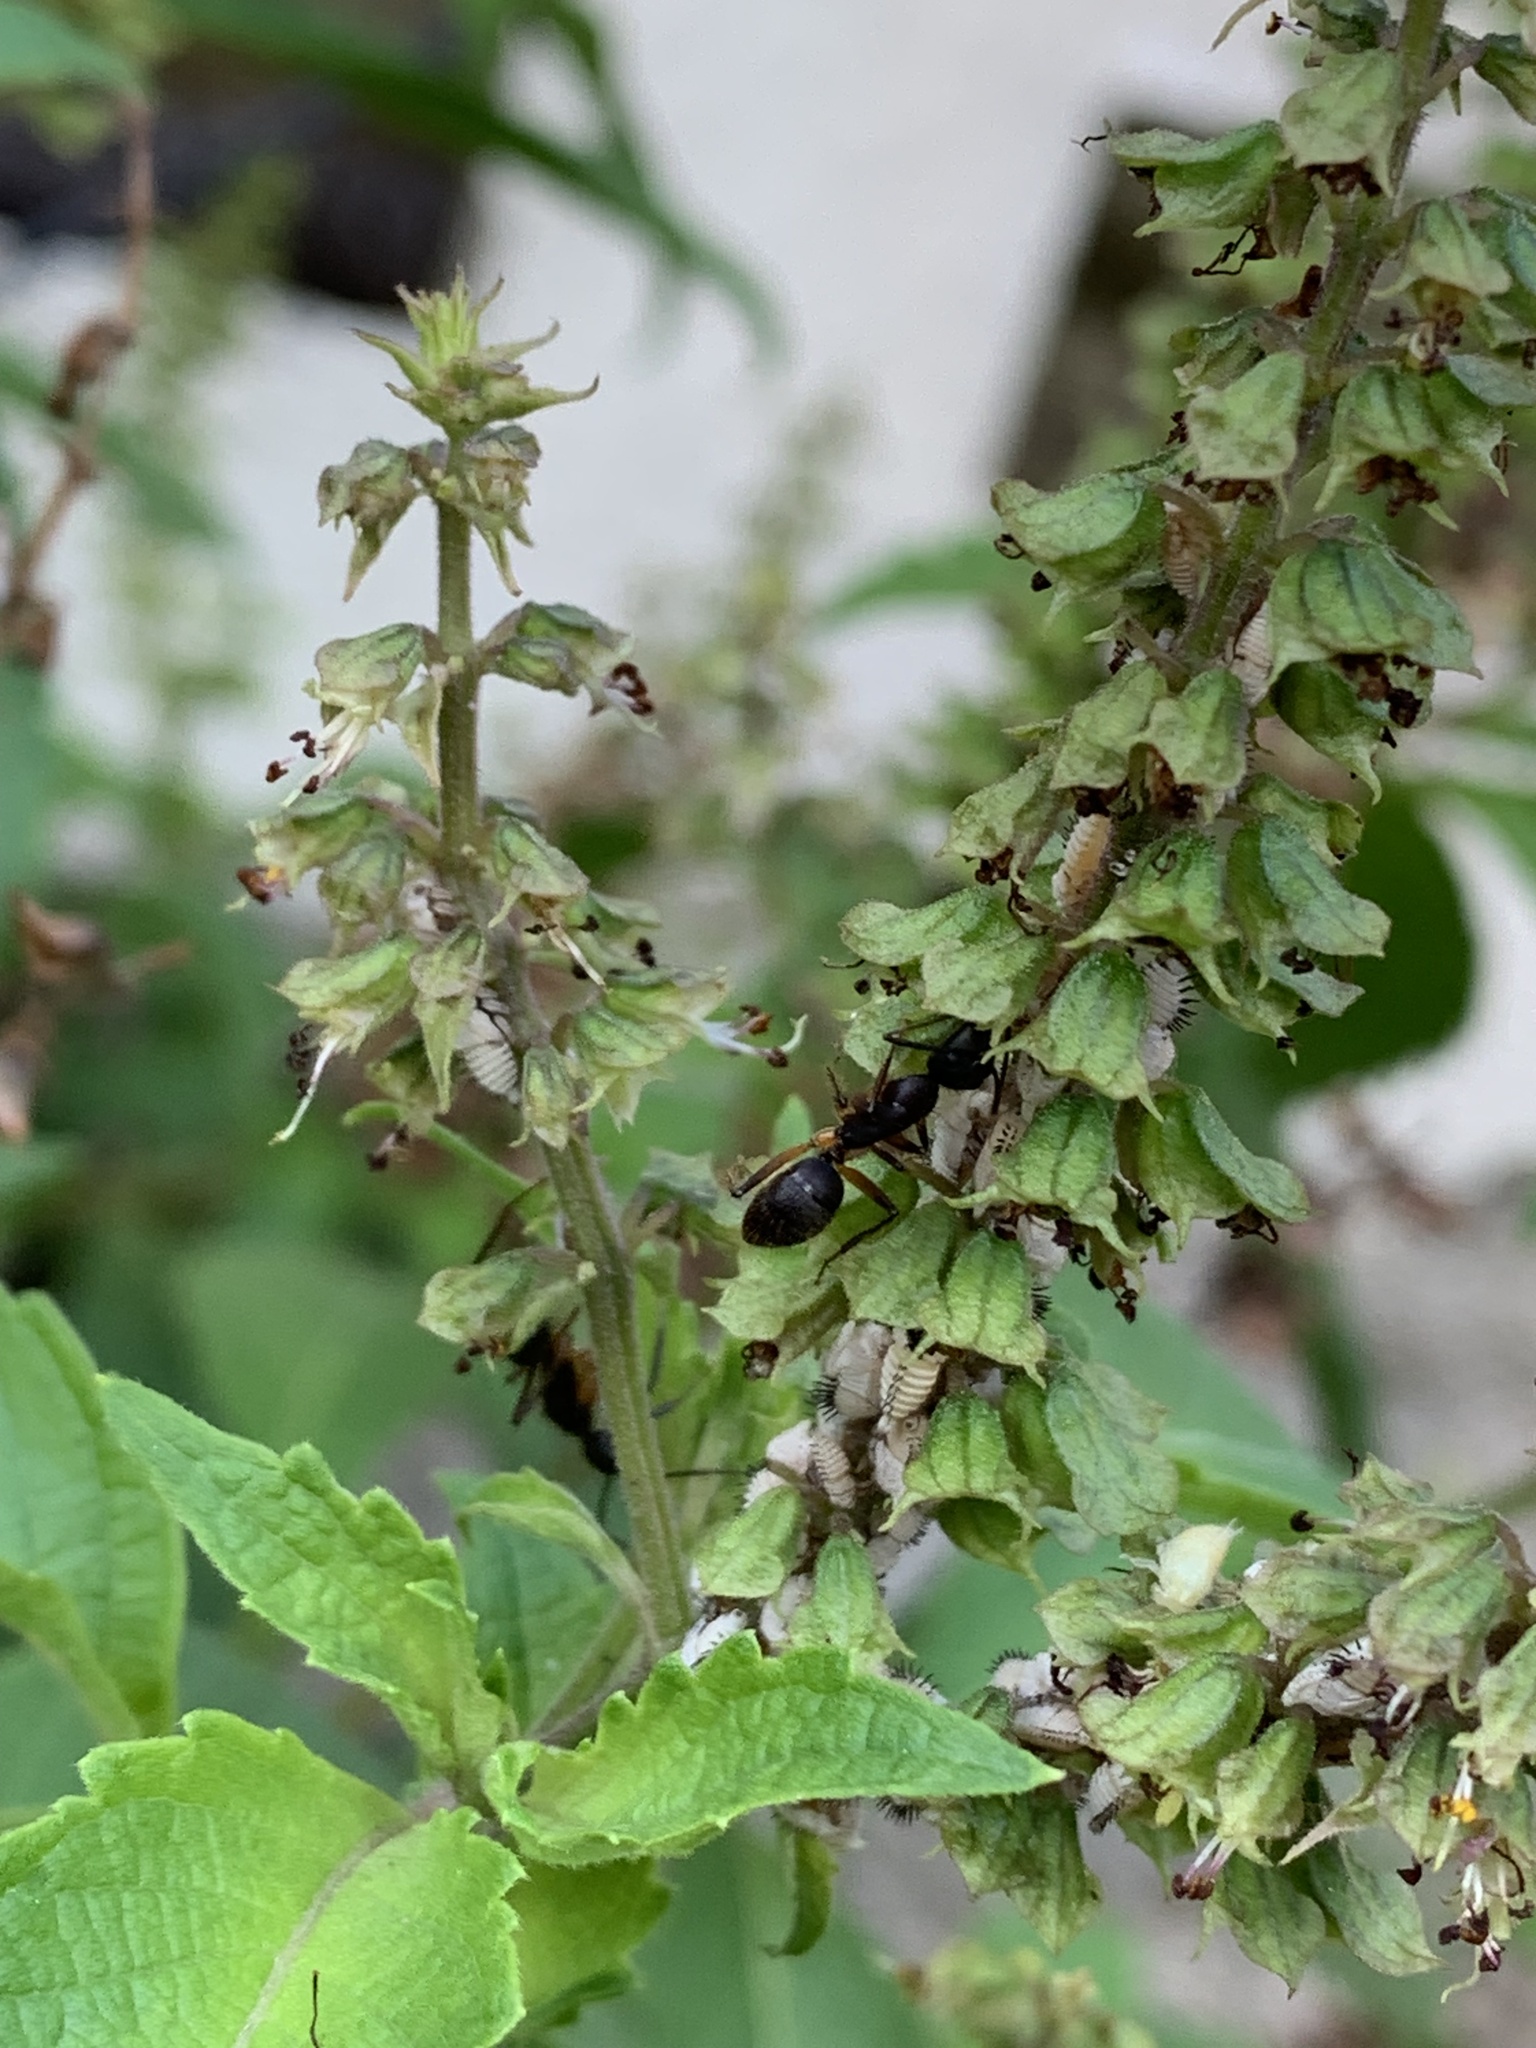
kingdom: Animalia
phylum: Arthropoda
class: Insecta
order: Hymenoptera
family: Formicidae
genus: Camponotus
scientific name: Camponotus renggeri
